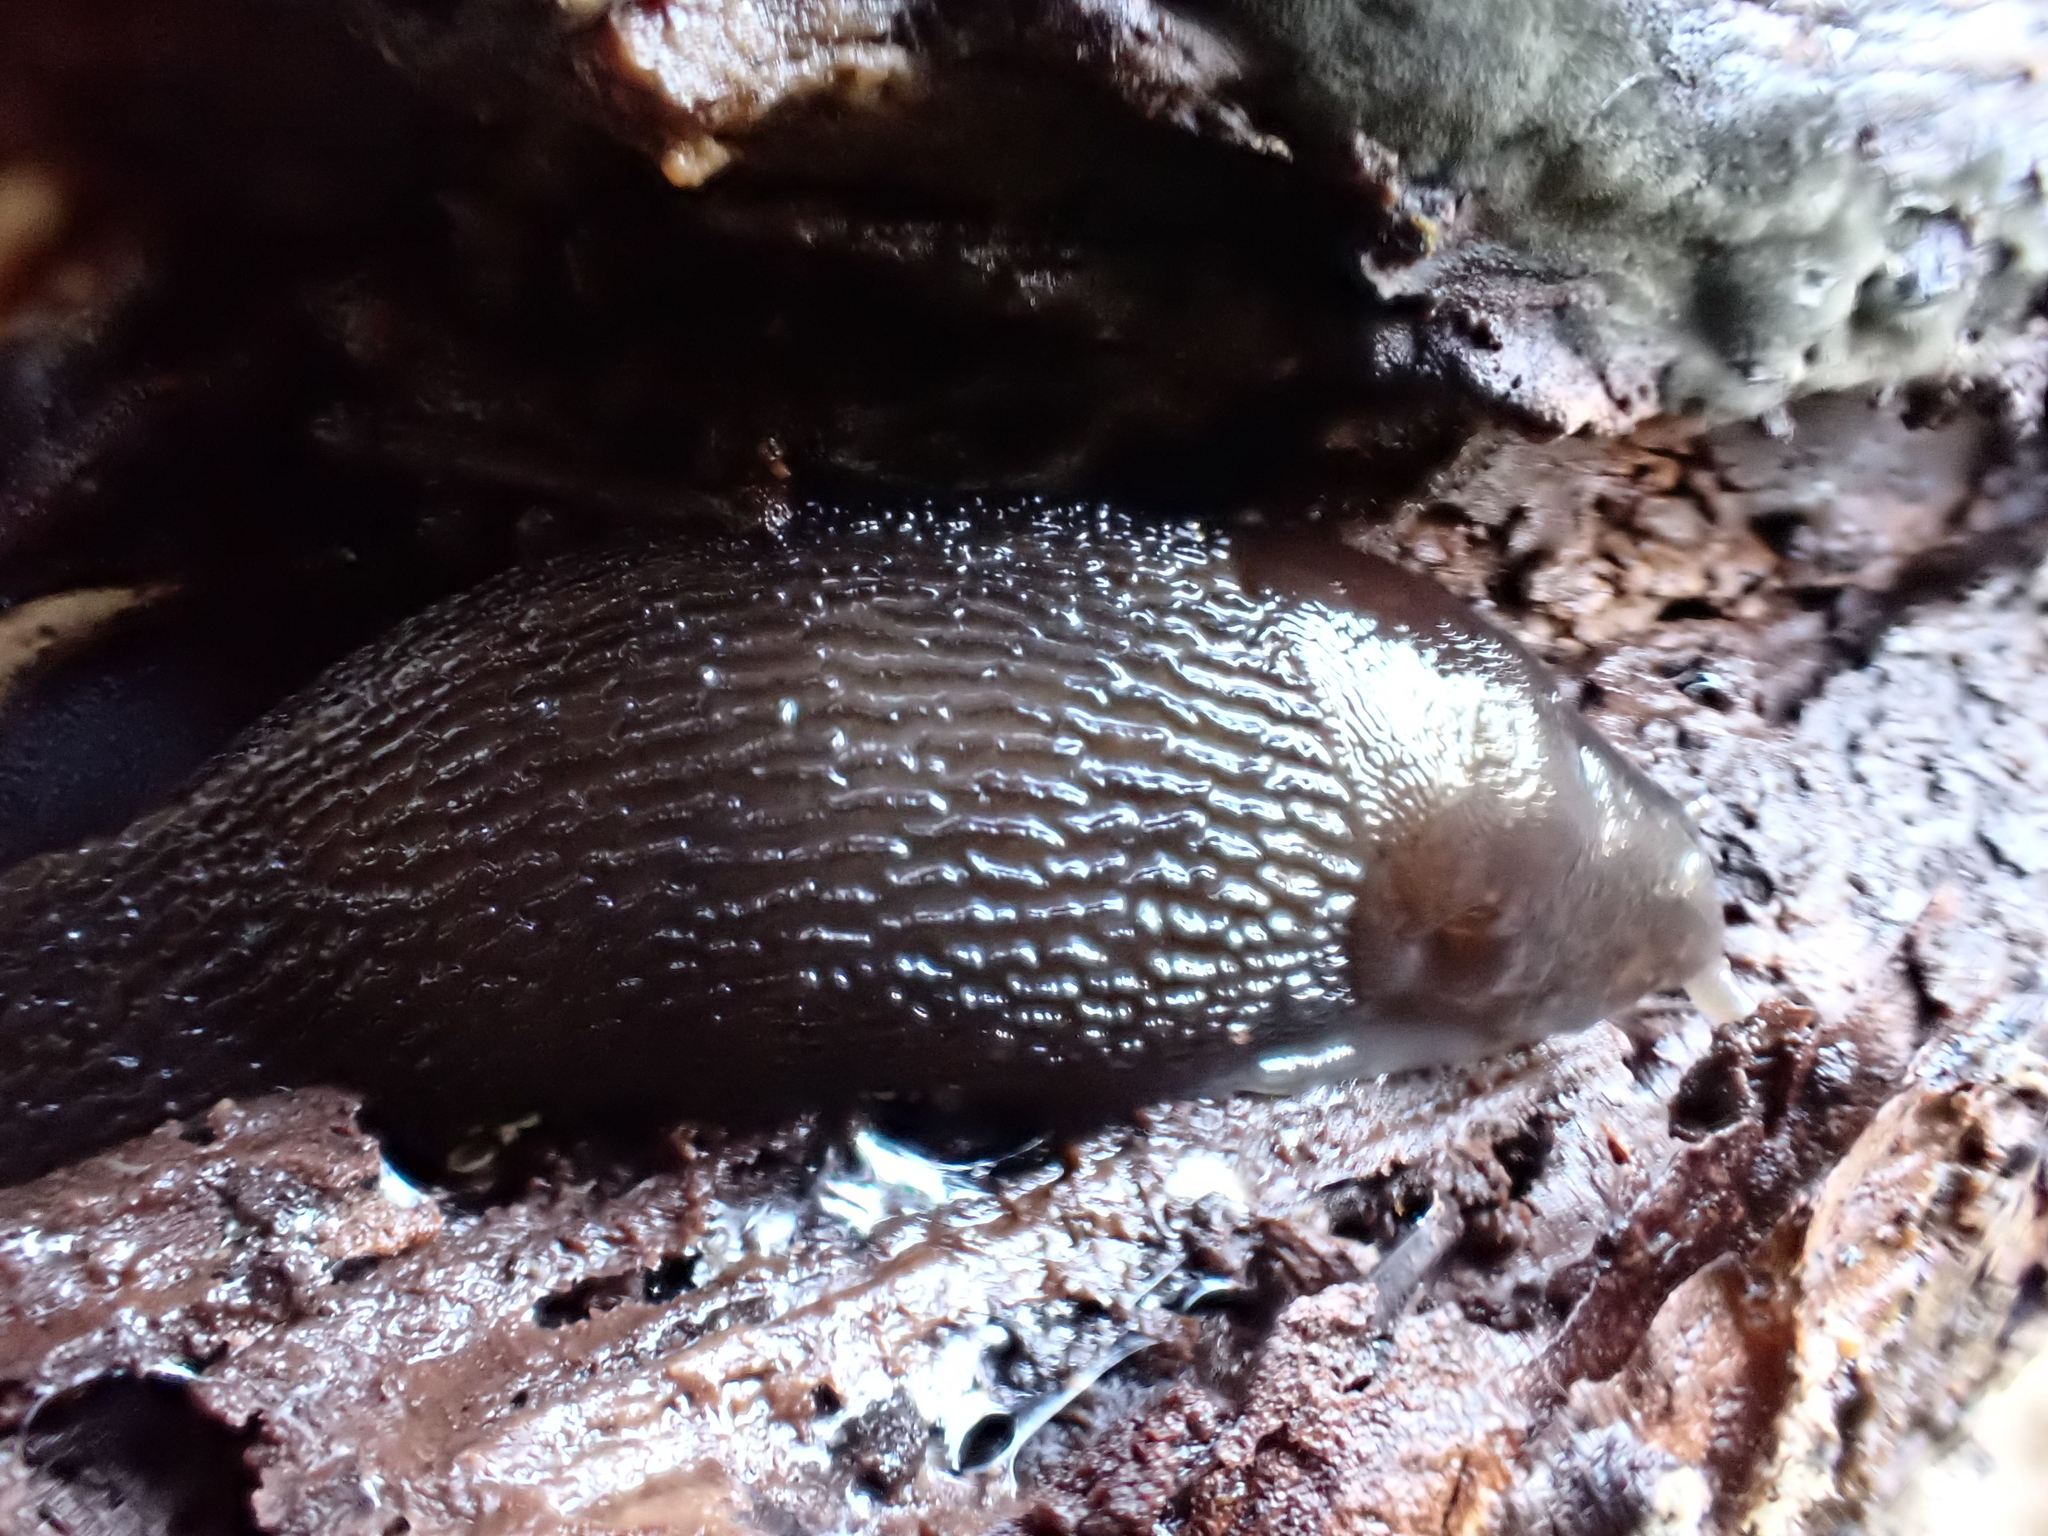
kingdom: Animalia
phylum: Mollusca
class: Gastropoda
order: Stylommatophora
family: Limacidae
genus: Limax
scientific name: Limax maximus
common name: Great grey slug
